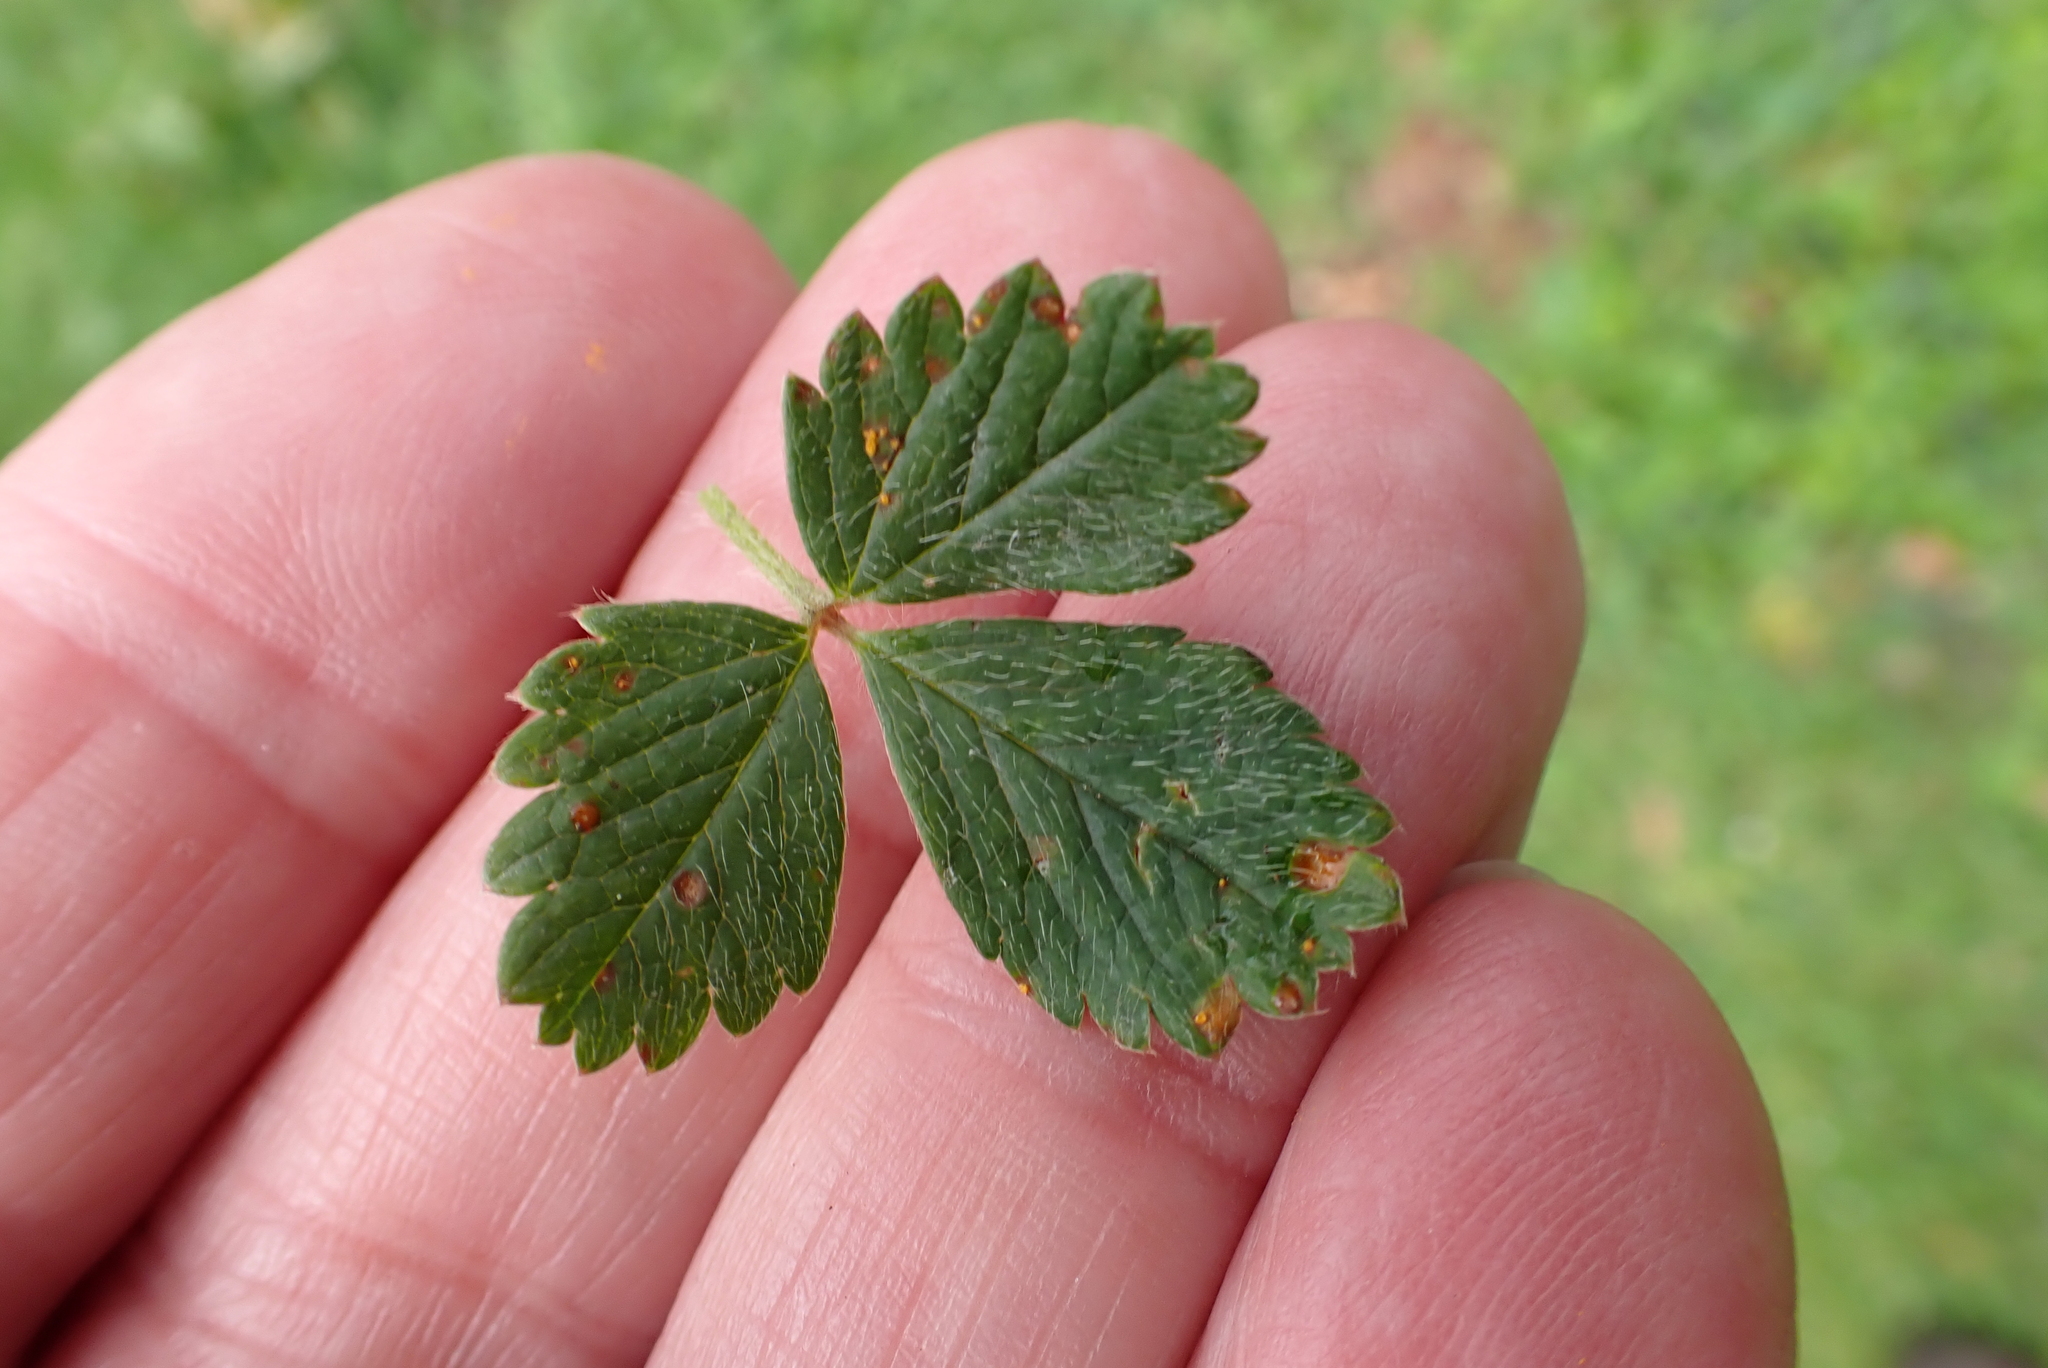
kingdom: Plantae
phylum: Tracheophyta
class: Magnoliopsida
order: Rosales
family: Rosaceae
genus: Potentilla
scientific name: Potentilla sterilis
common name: Barren strawberry
